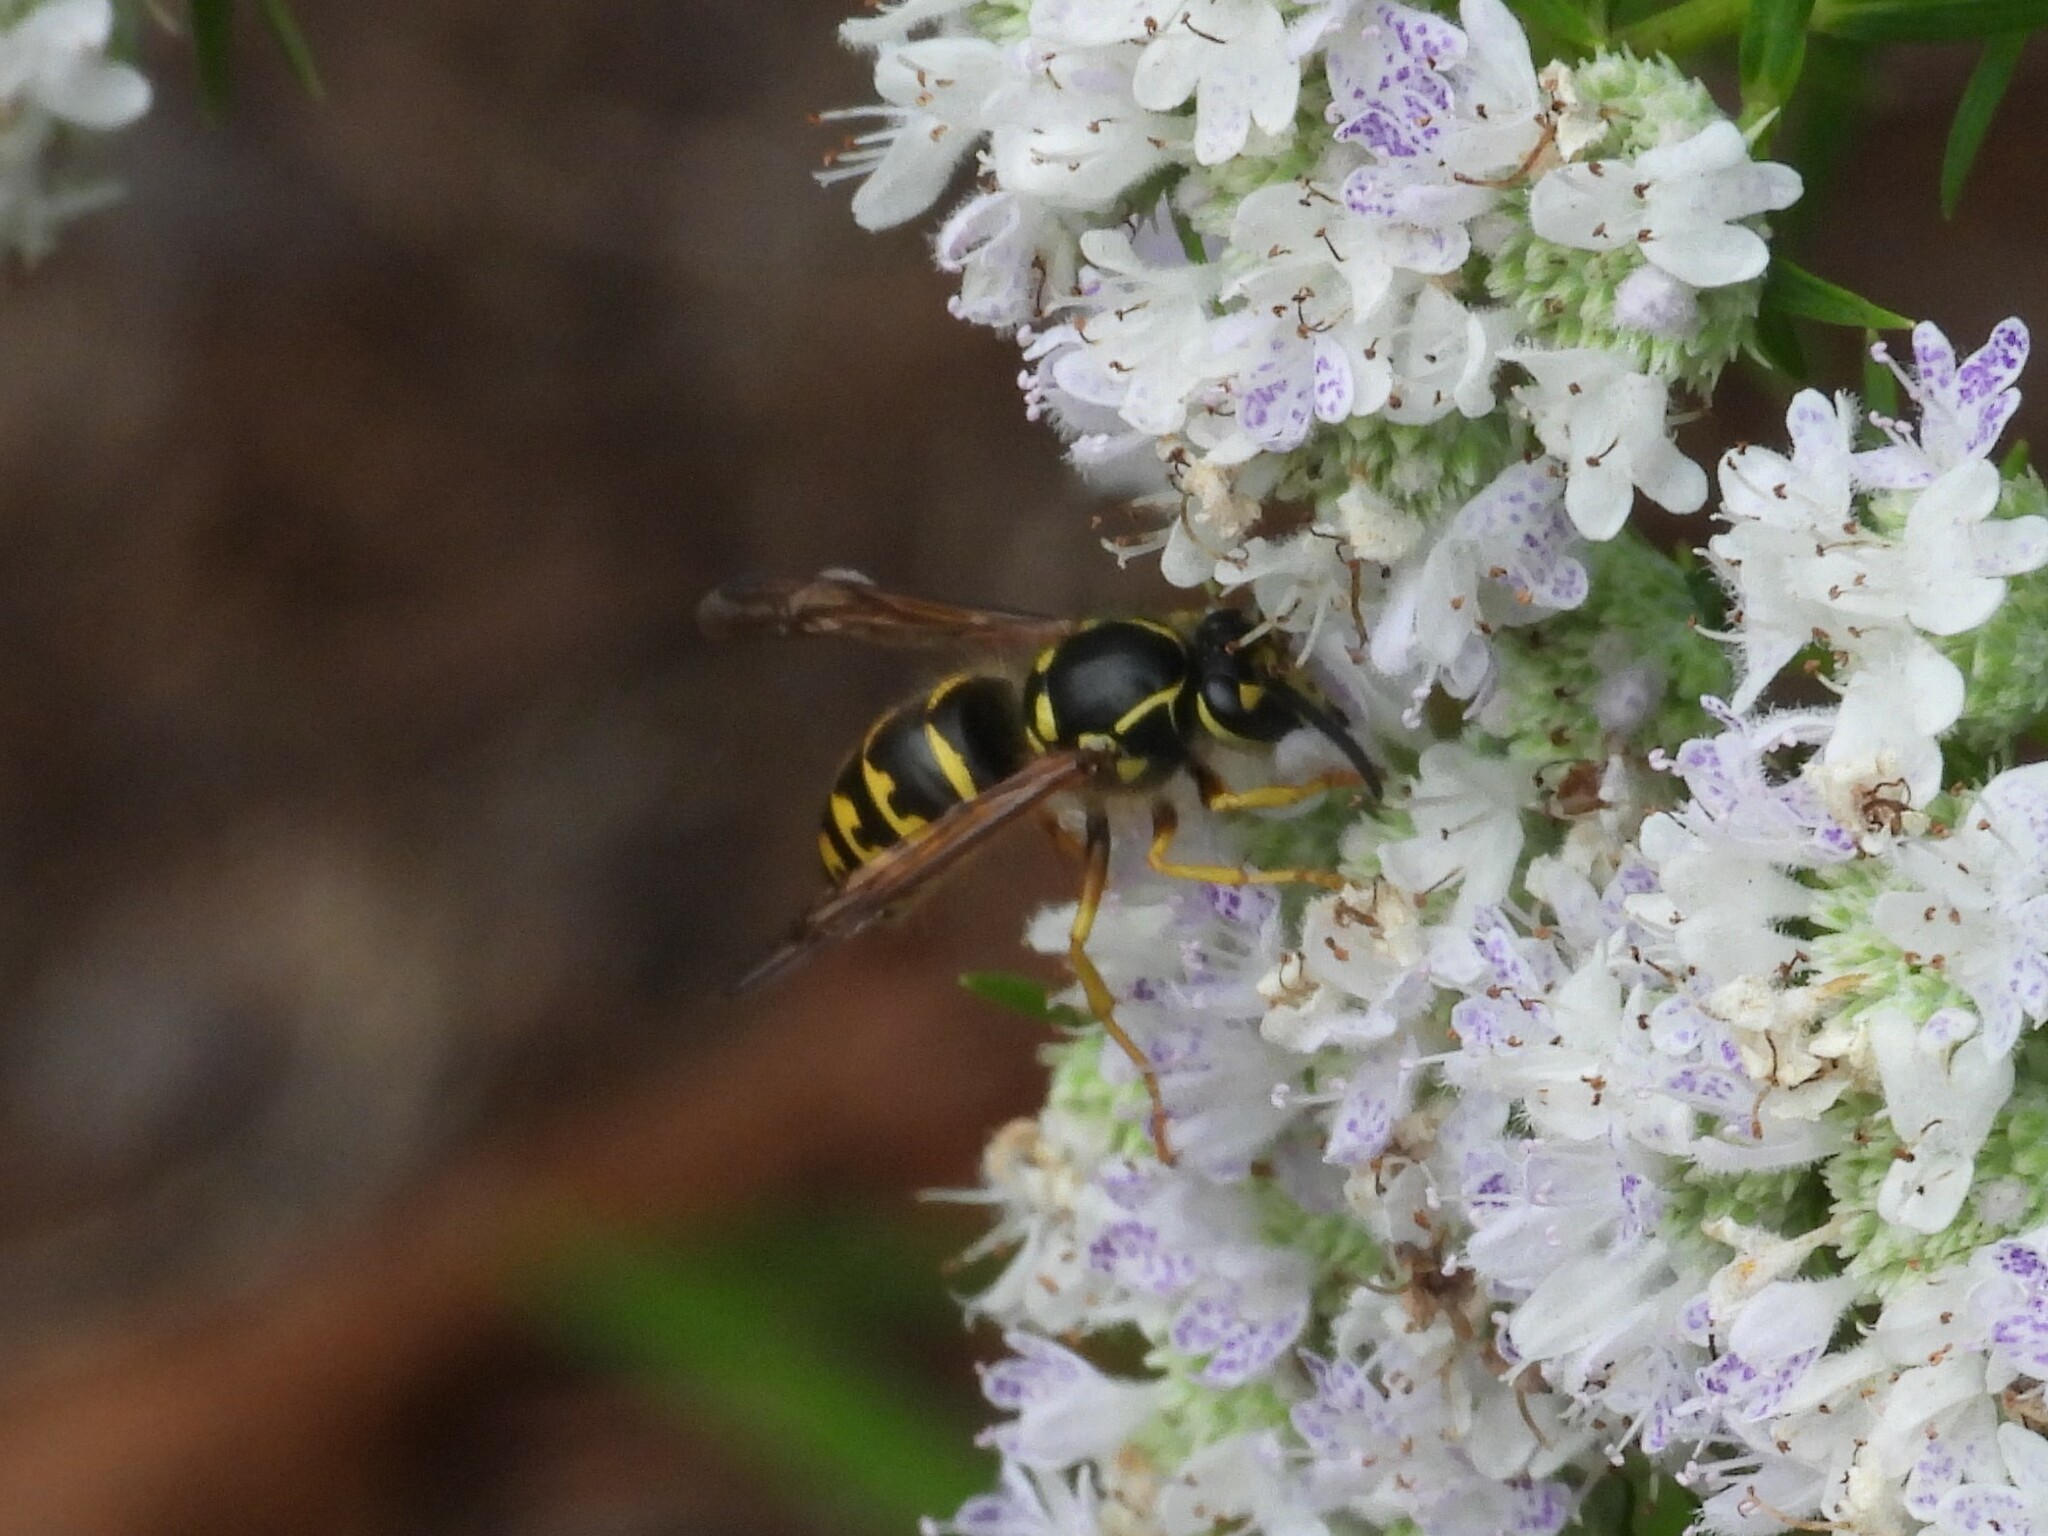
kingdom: Animalia
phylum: Arthropoda
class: Insecta
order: Hymenoptera
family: Vespidae
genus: Dolichovespula
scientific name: Dolichovespula arenaria
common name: Aerial yellowjacket
